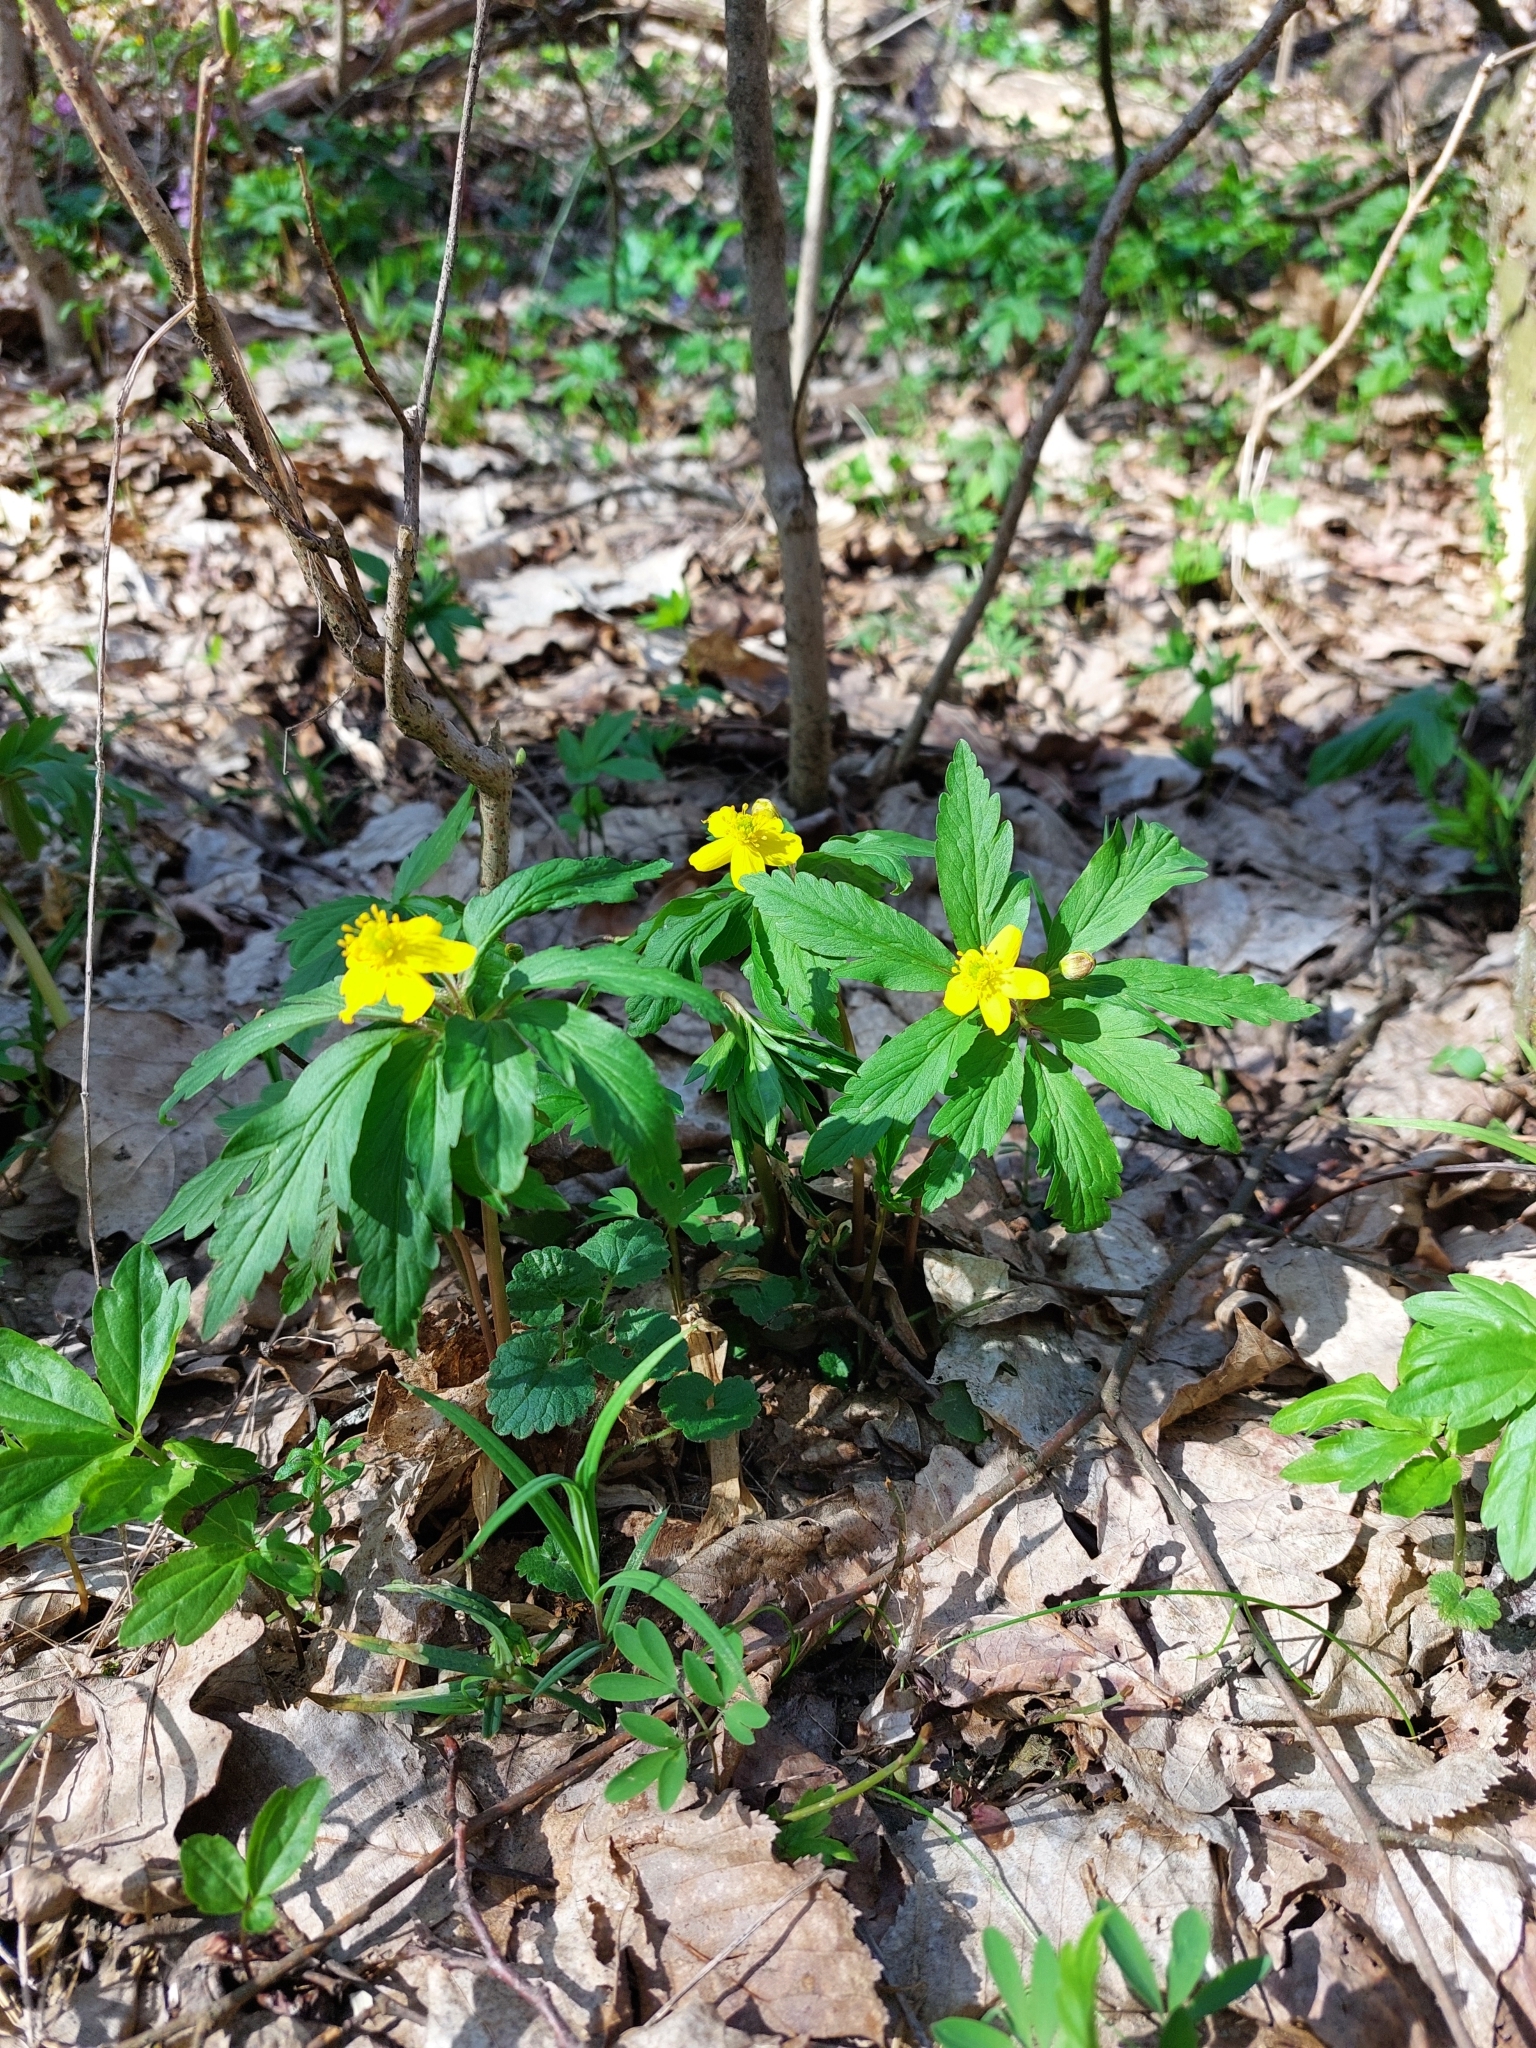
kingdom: Plantae
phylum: Tracheophyta
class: Magnoliopsida
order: Ranunculales
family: Ranunculaceae
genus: Anemone
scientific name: Anemone ranunculoides
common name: Yellow anemone
